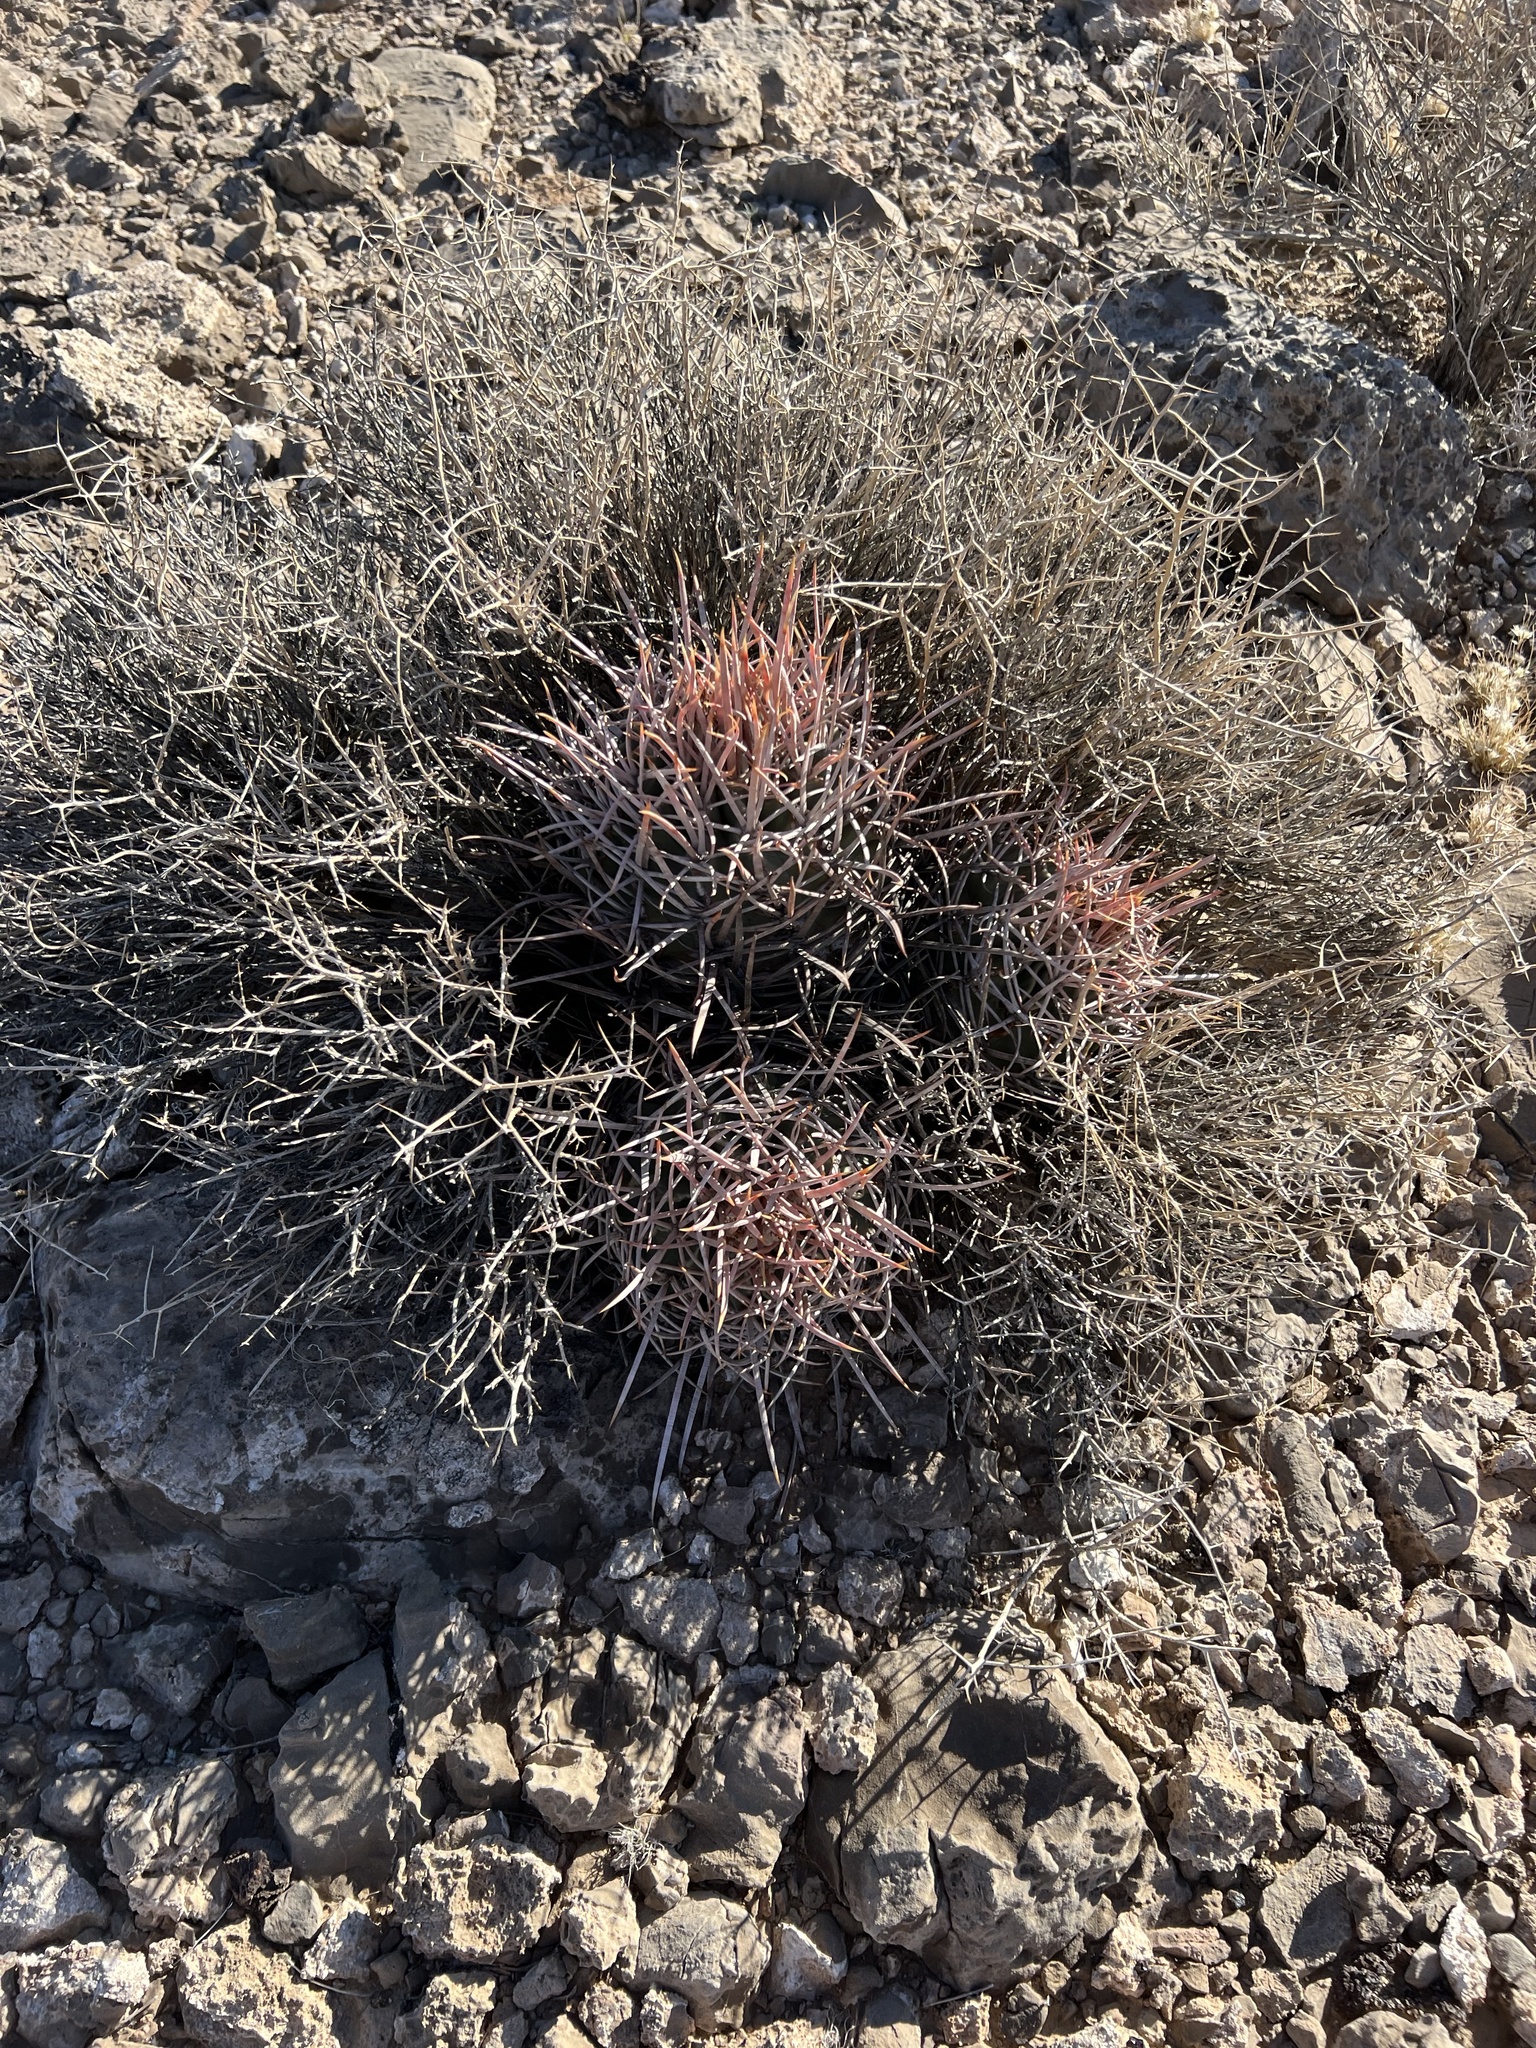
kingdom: Plantae
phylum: Tracheophyta
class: Magnoliopsida
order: Caryophyllales
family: Cactaceae
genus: Echinocactus
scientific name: Echinocactus polycephalus
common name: Cottontop cactus
